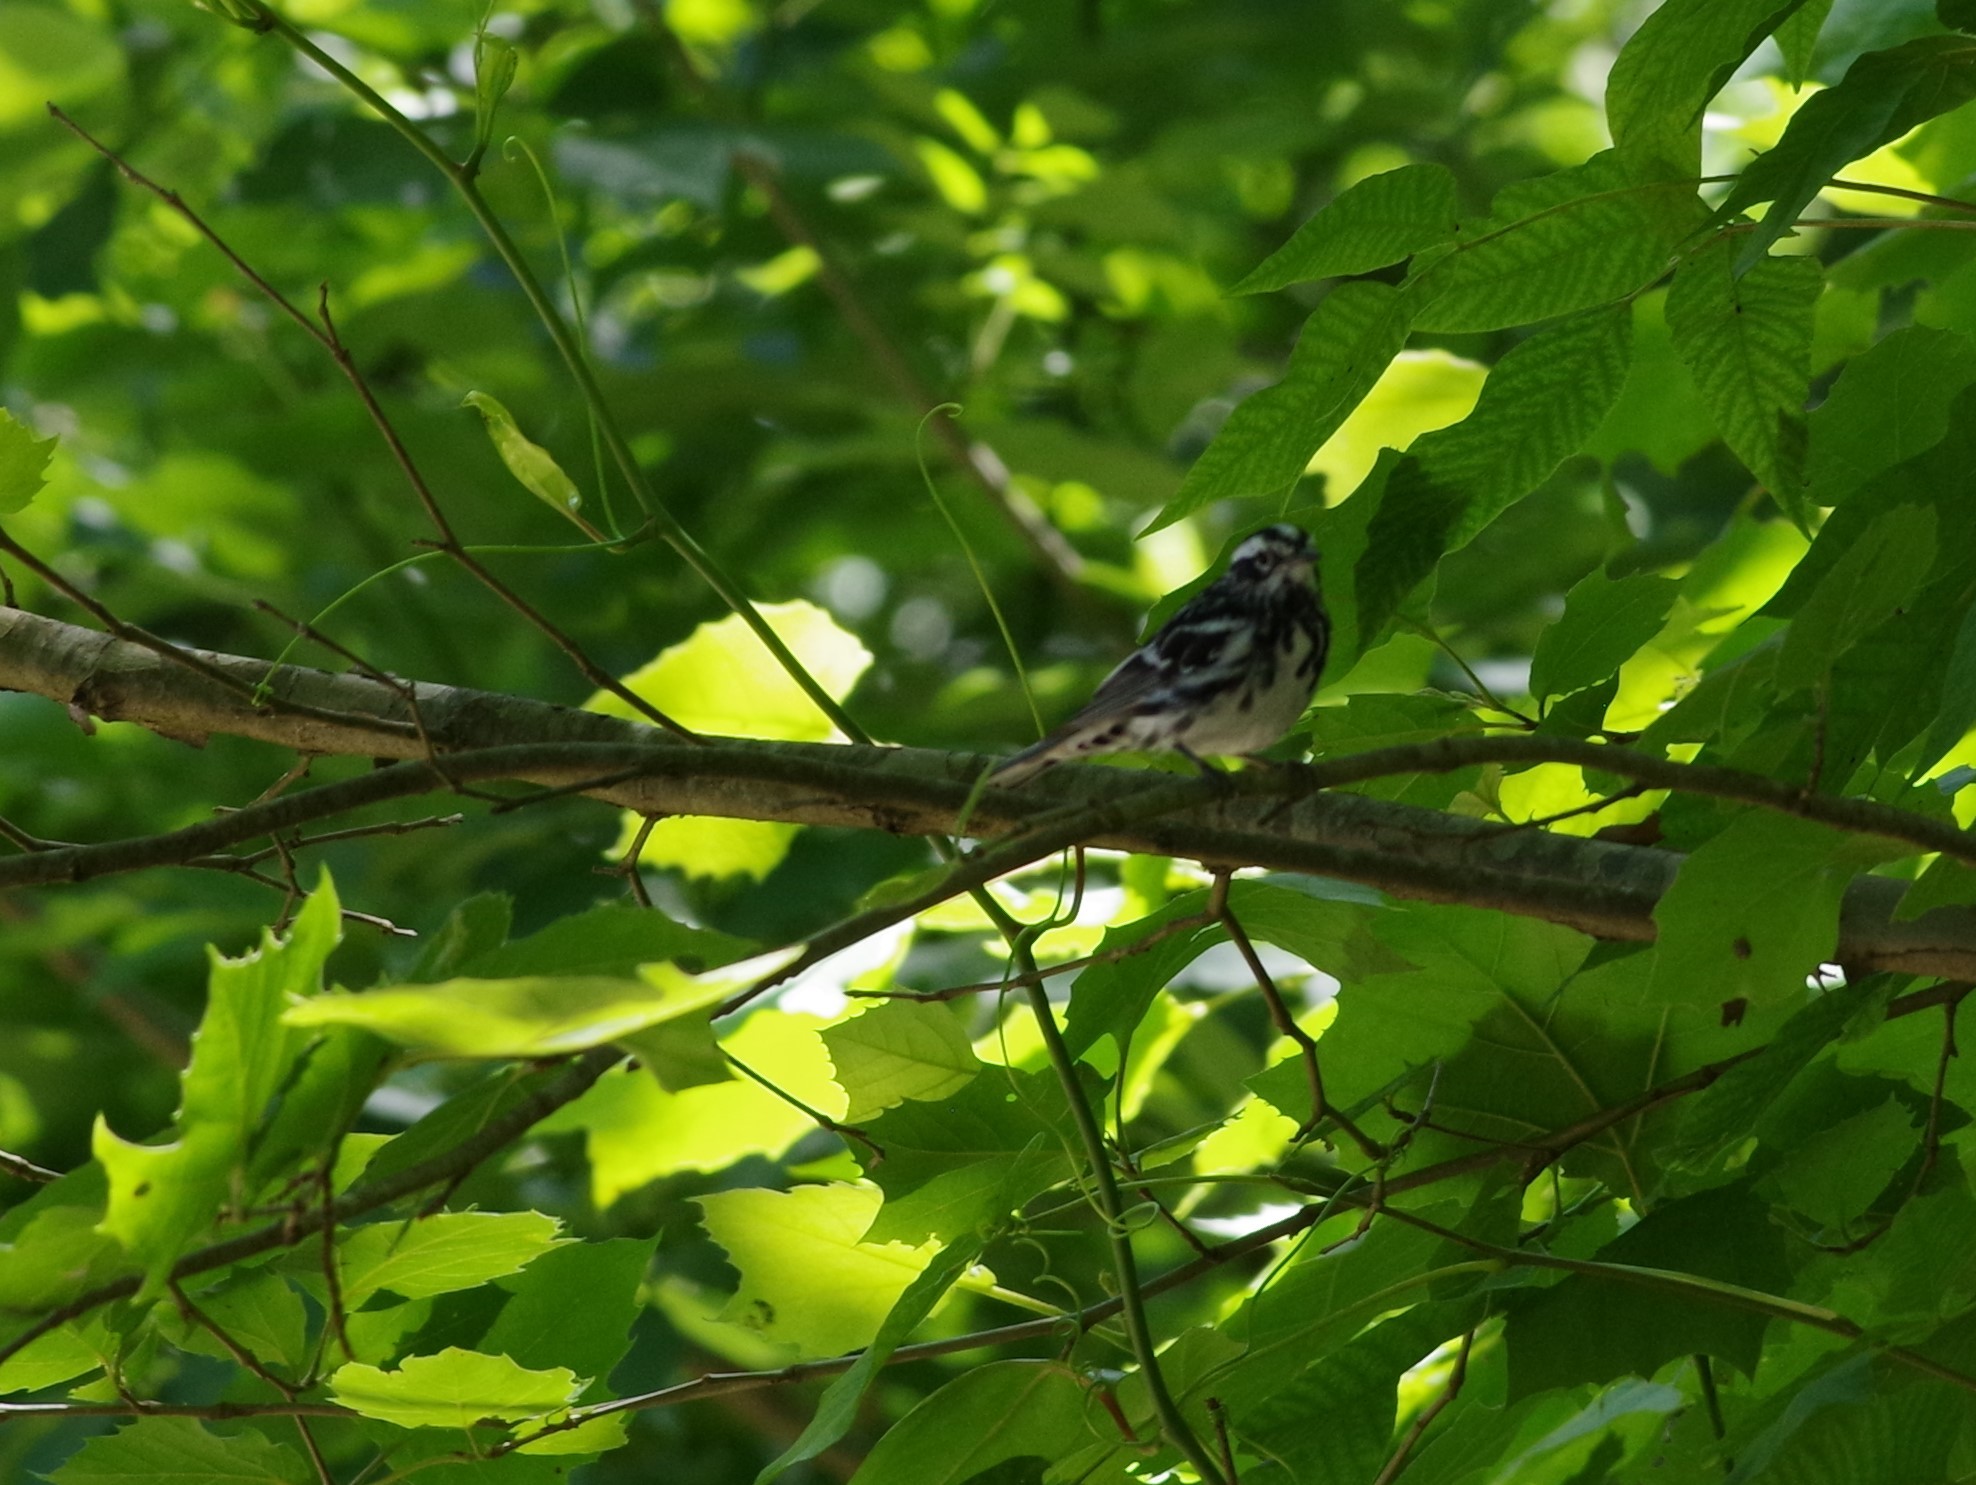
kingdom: Animalia
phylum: Chordata
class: Aves
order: Passeriformes
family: Parulidae
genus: Mniotilta
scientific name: Mniotilta varia
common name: Black-and-white warbler
